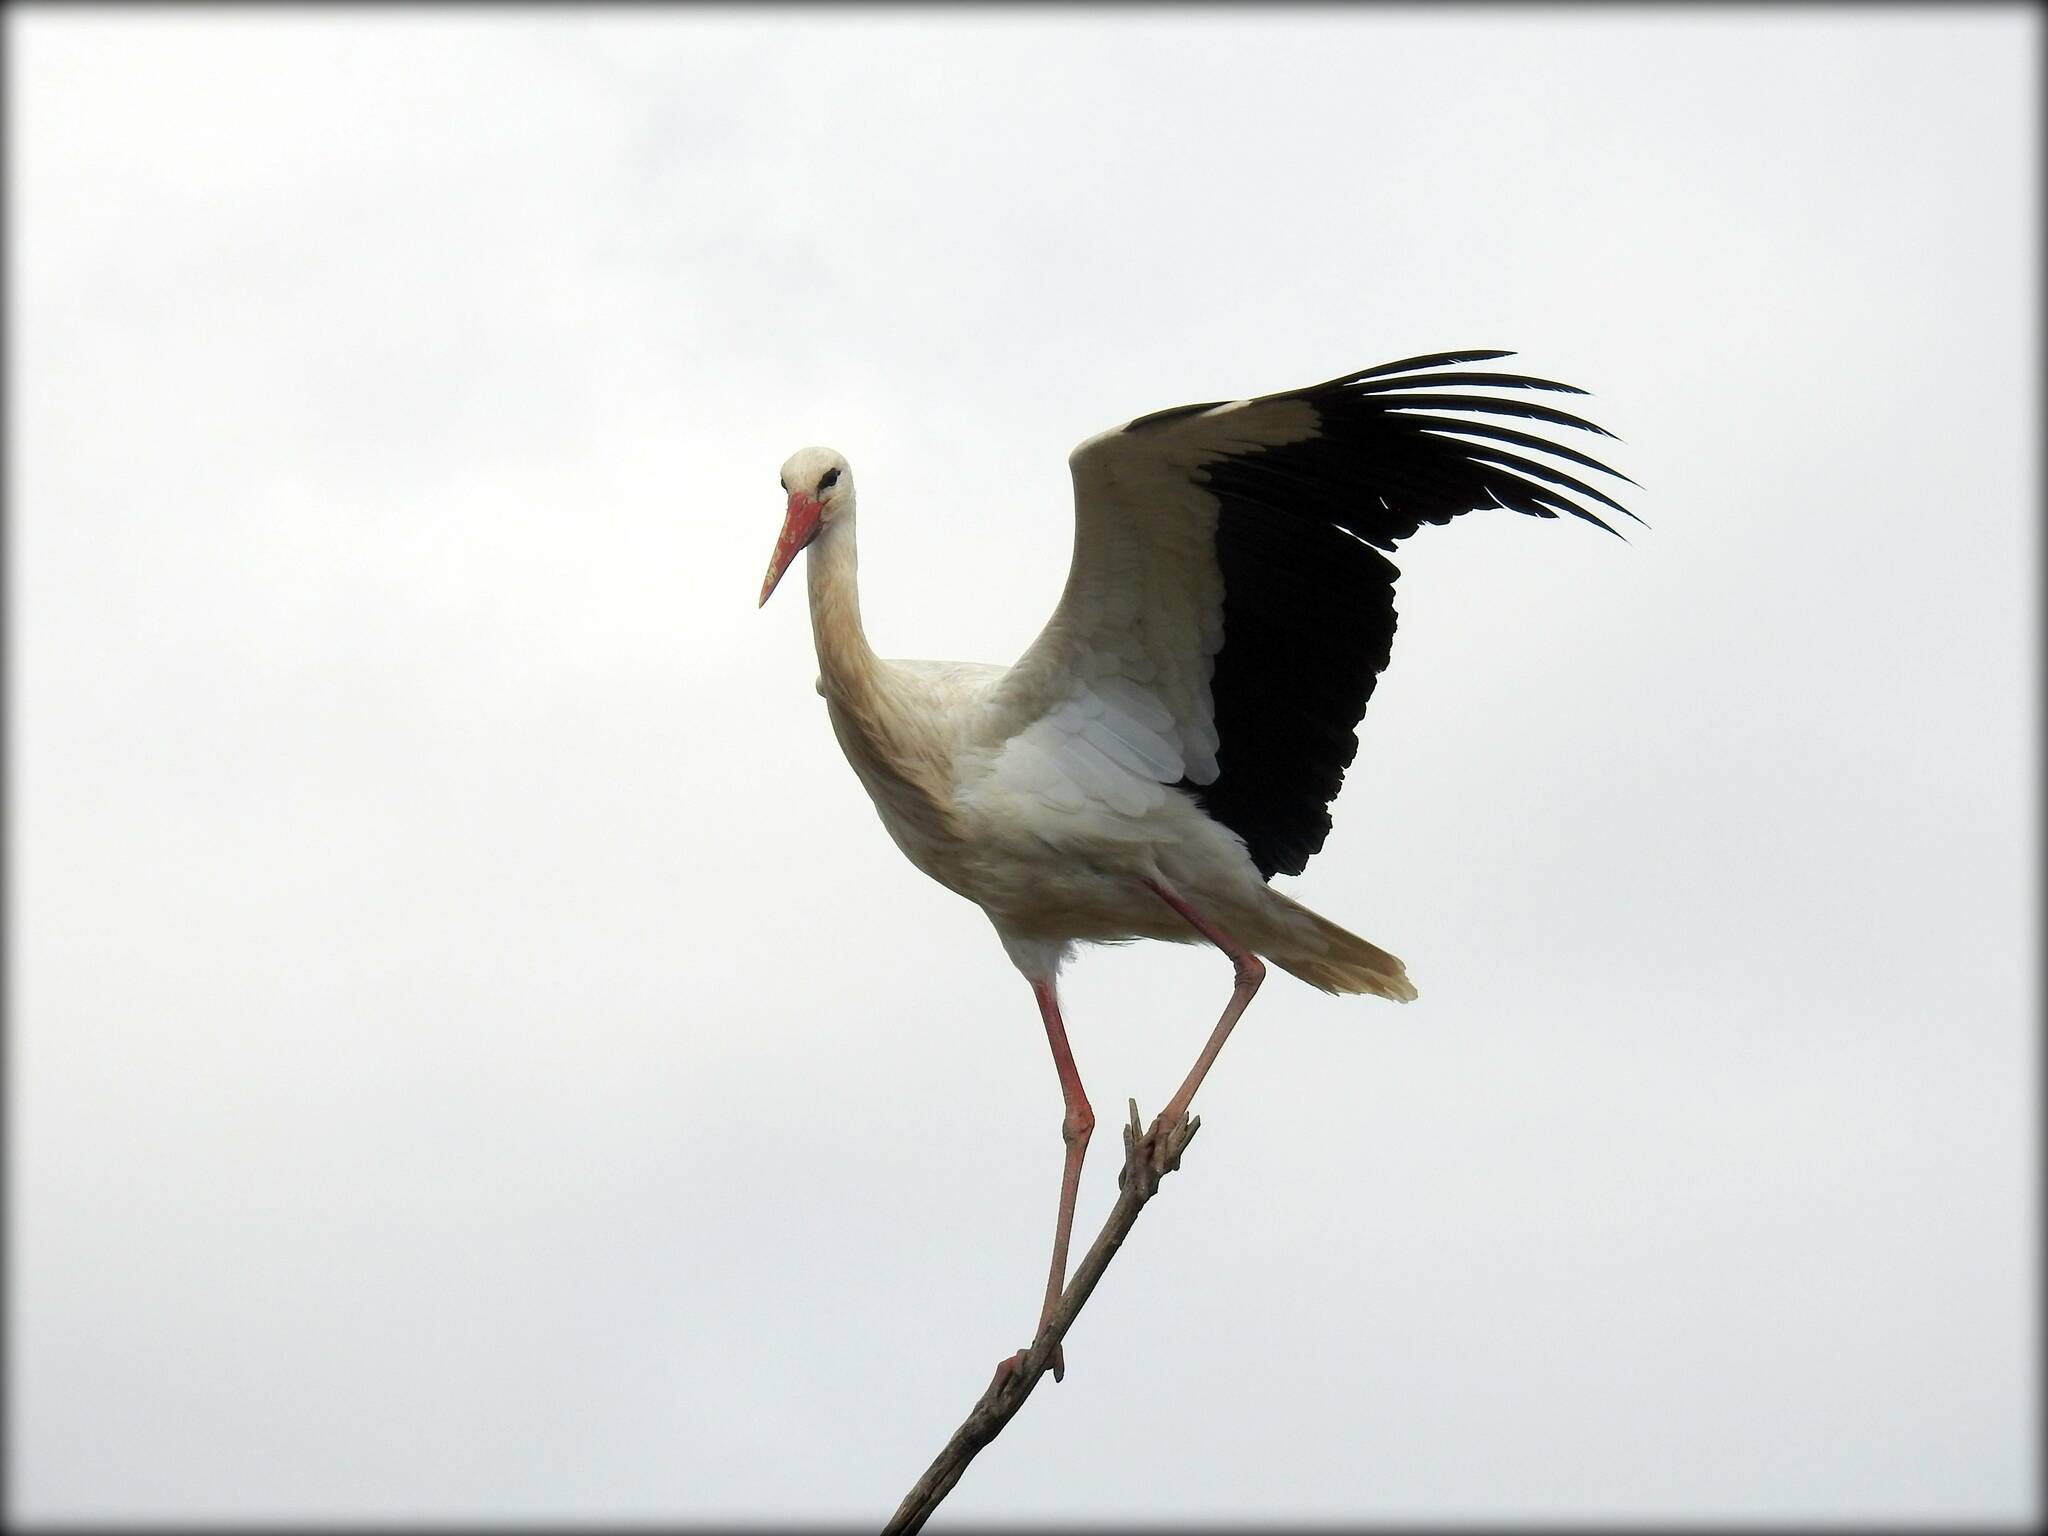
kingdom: Animalia
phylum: Chordata
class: Aves
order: Ciconiiformes
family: Ciconiidae
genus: Ciconia
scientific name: Ciconia ciconia
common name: White stork
